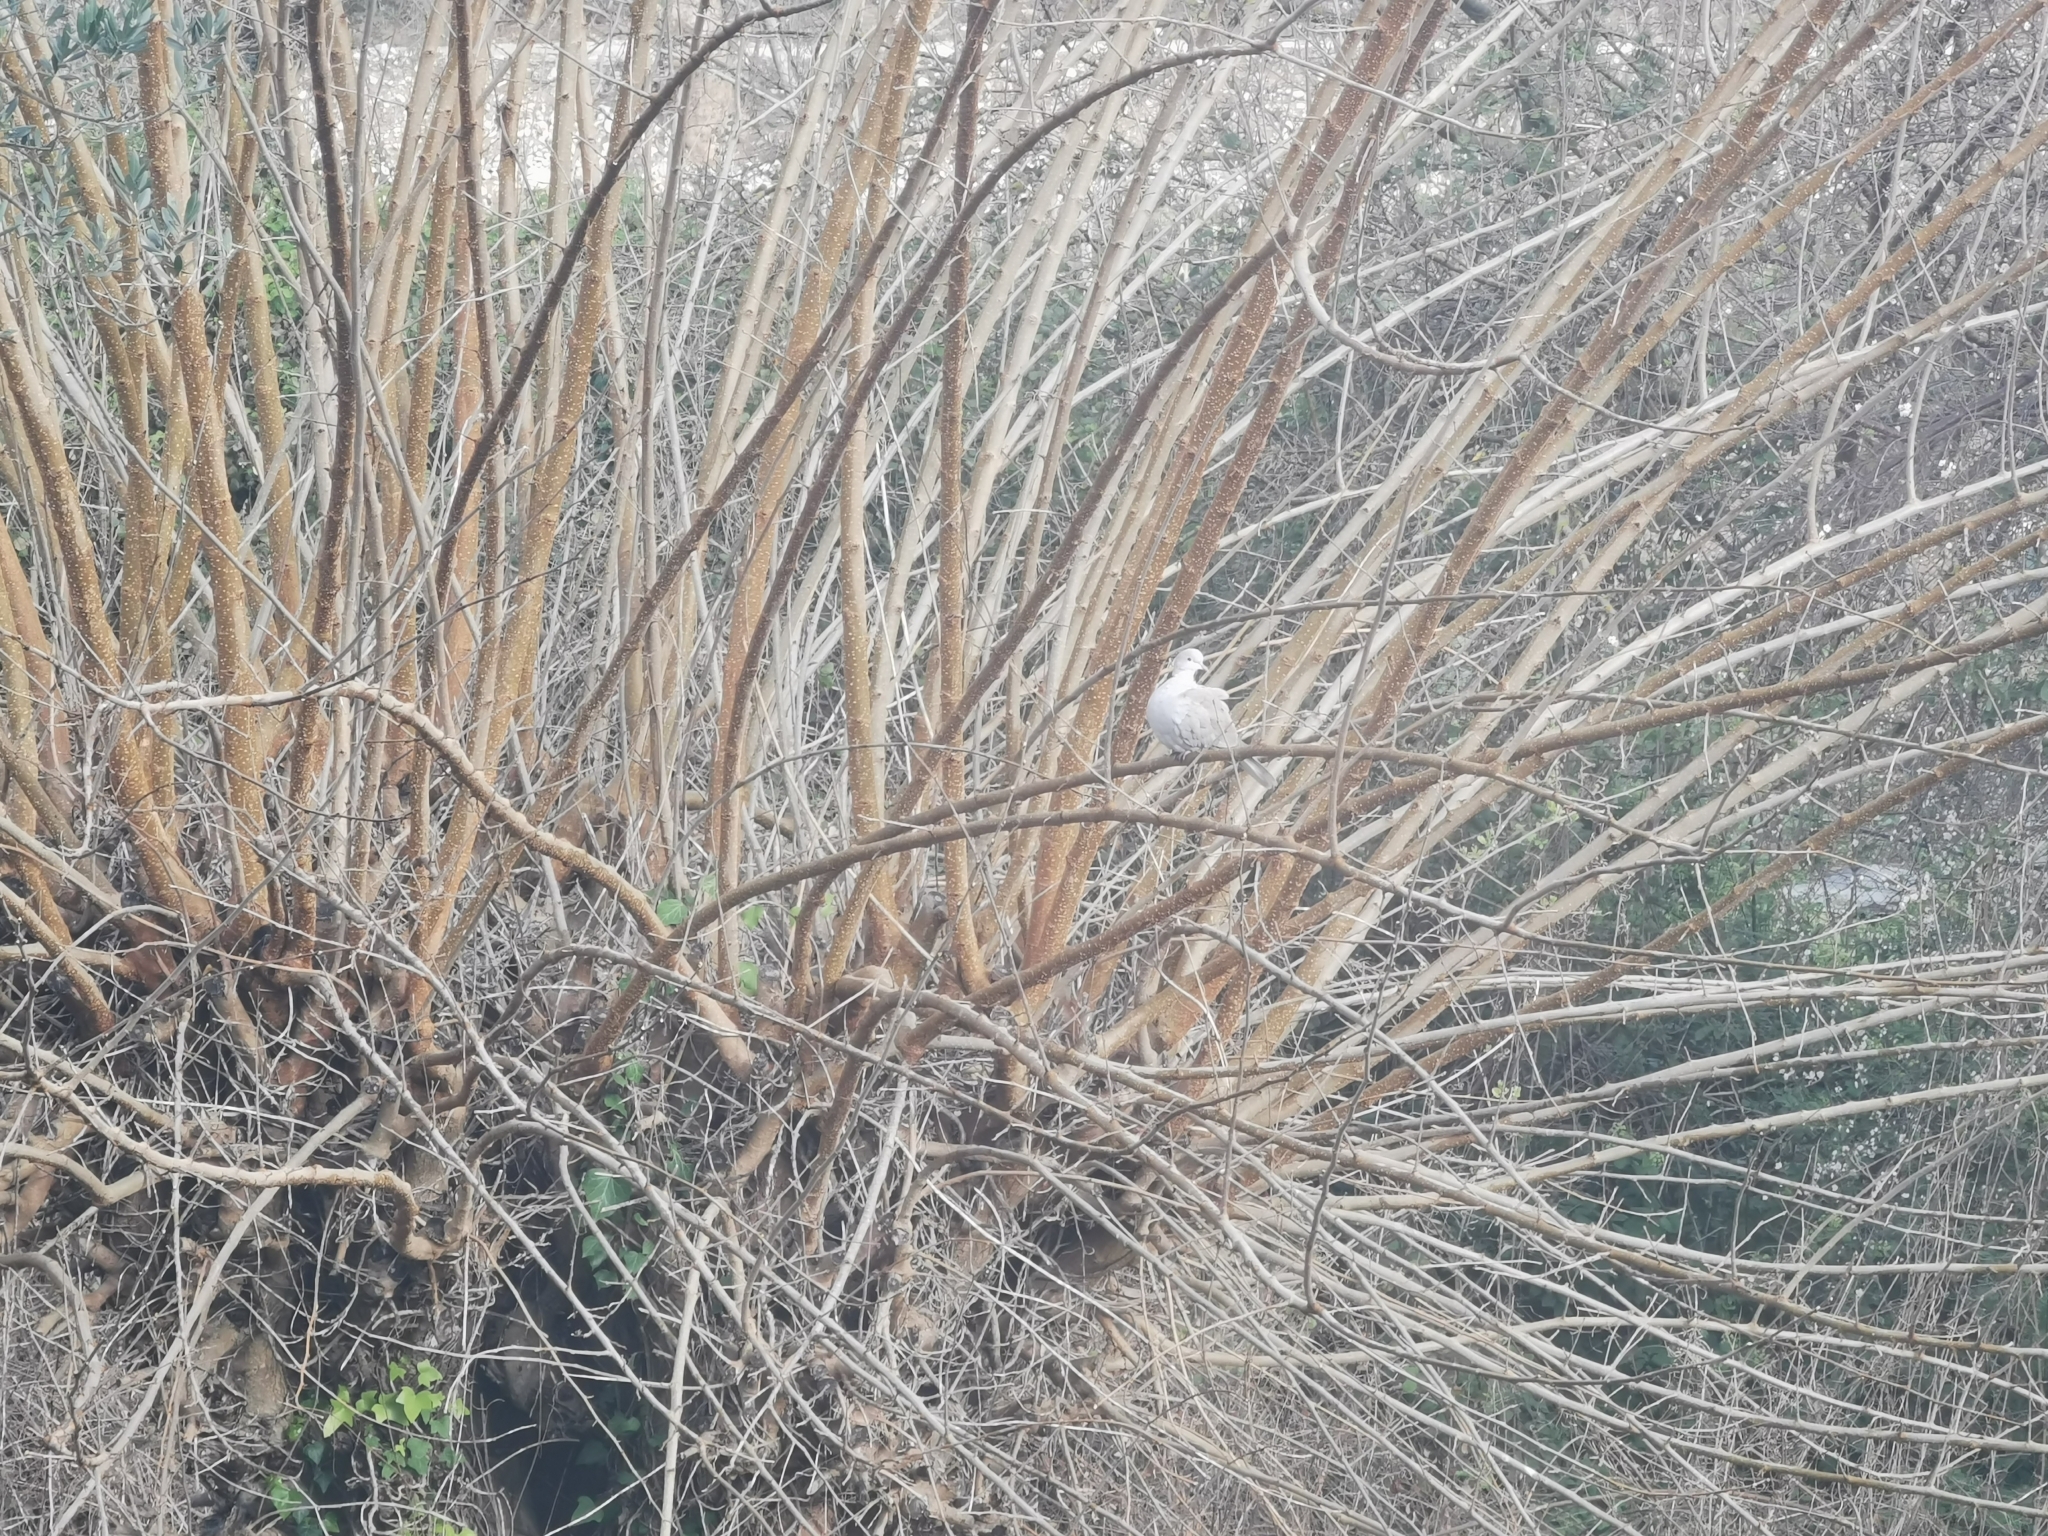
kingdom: Animalia
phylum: Chordata
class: Aves
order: Columbiformes
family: Columbidae
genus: Streptopelia
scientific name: Streptopelia decaocto
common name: Eurasian collared dove
